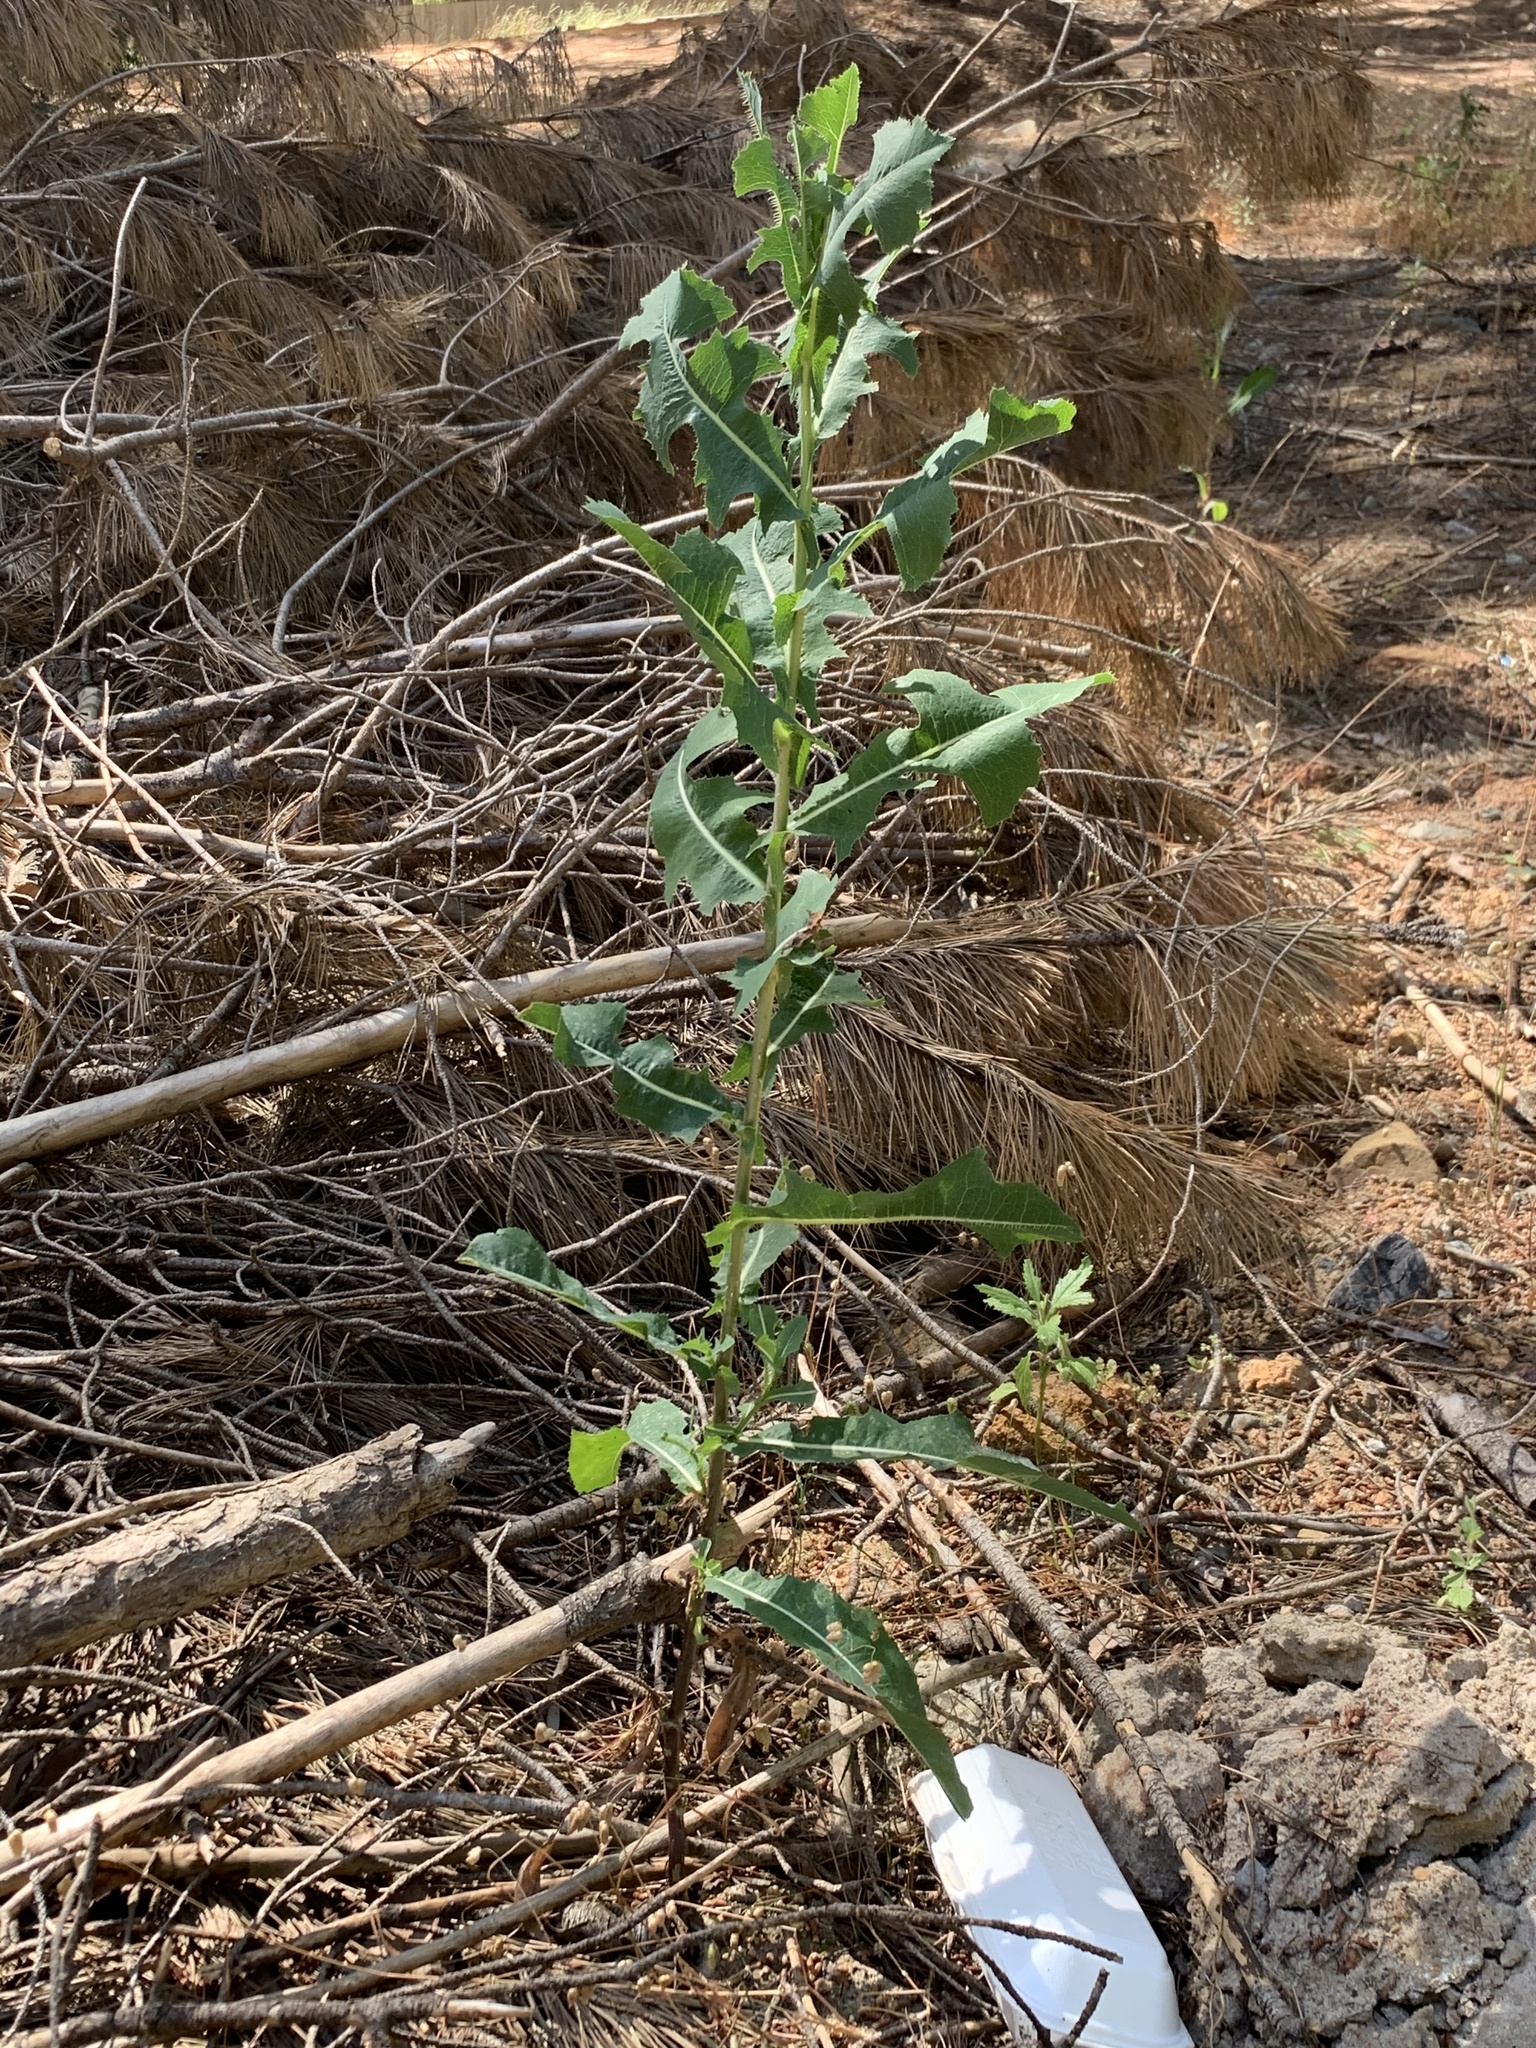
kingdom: Plantae
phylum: Tracheophyta
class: Magnoliopsida
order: Asterales
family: Asteraceae
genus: Lactuca
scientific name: Lactuca serriola
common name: Prickly lettuce
